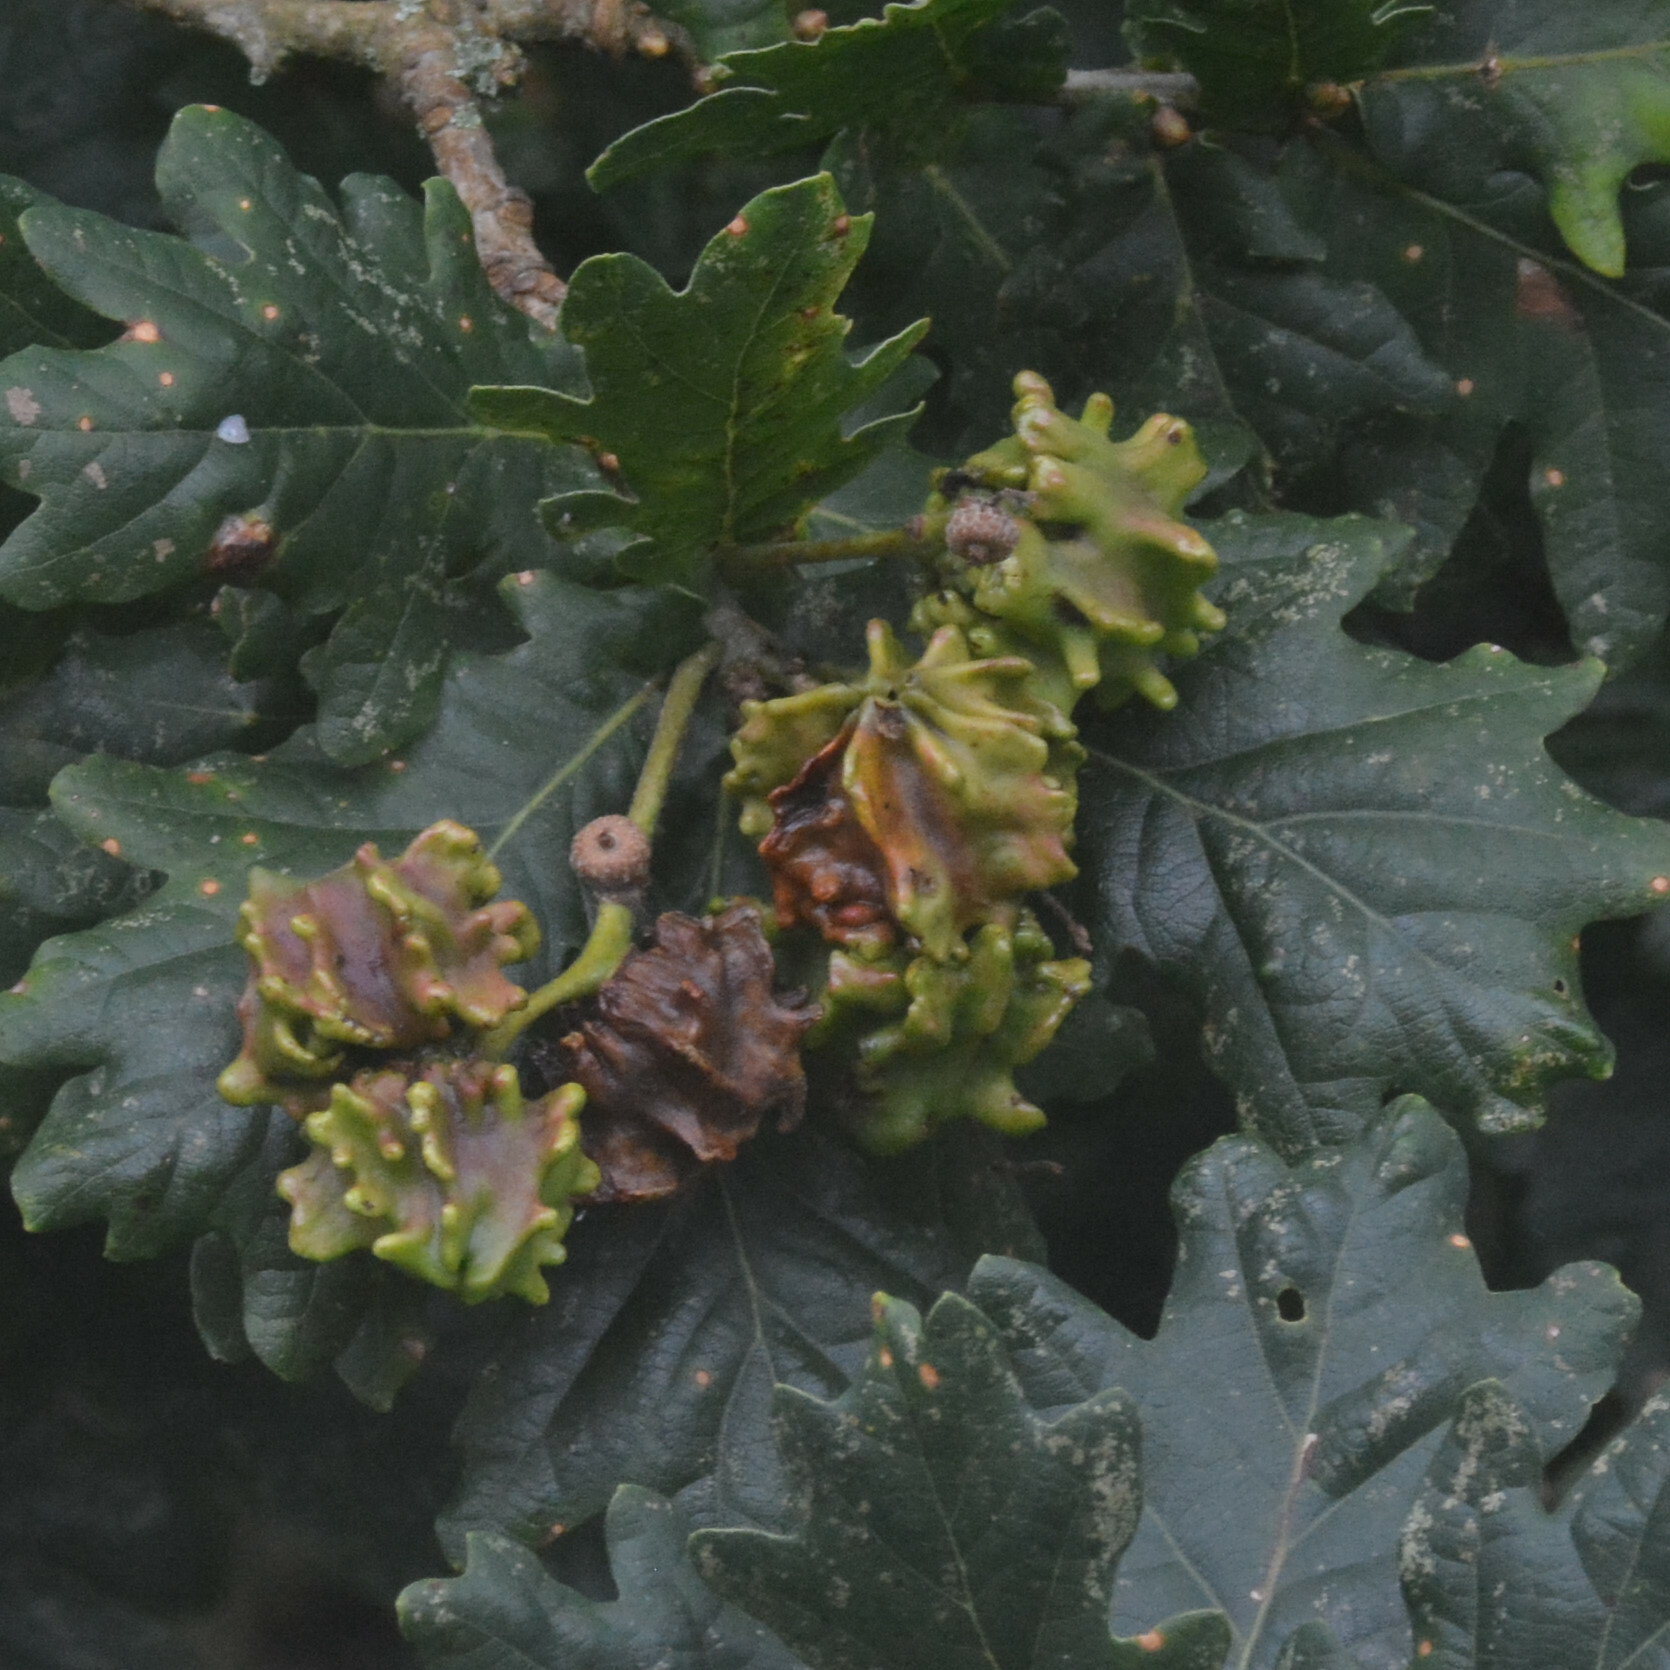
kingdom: Animalia
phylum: Arthropoda
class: Insecta
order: Hymenoptera
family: Cynipidae
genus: Andricus
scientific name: Andricus quercuscalicis
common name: Knopper gall
